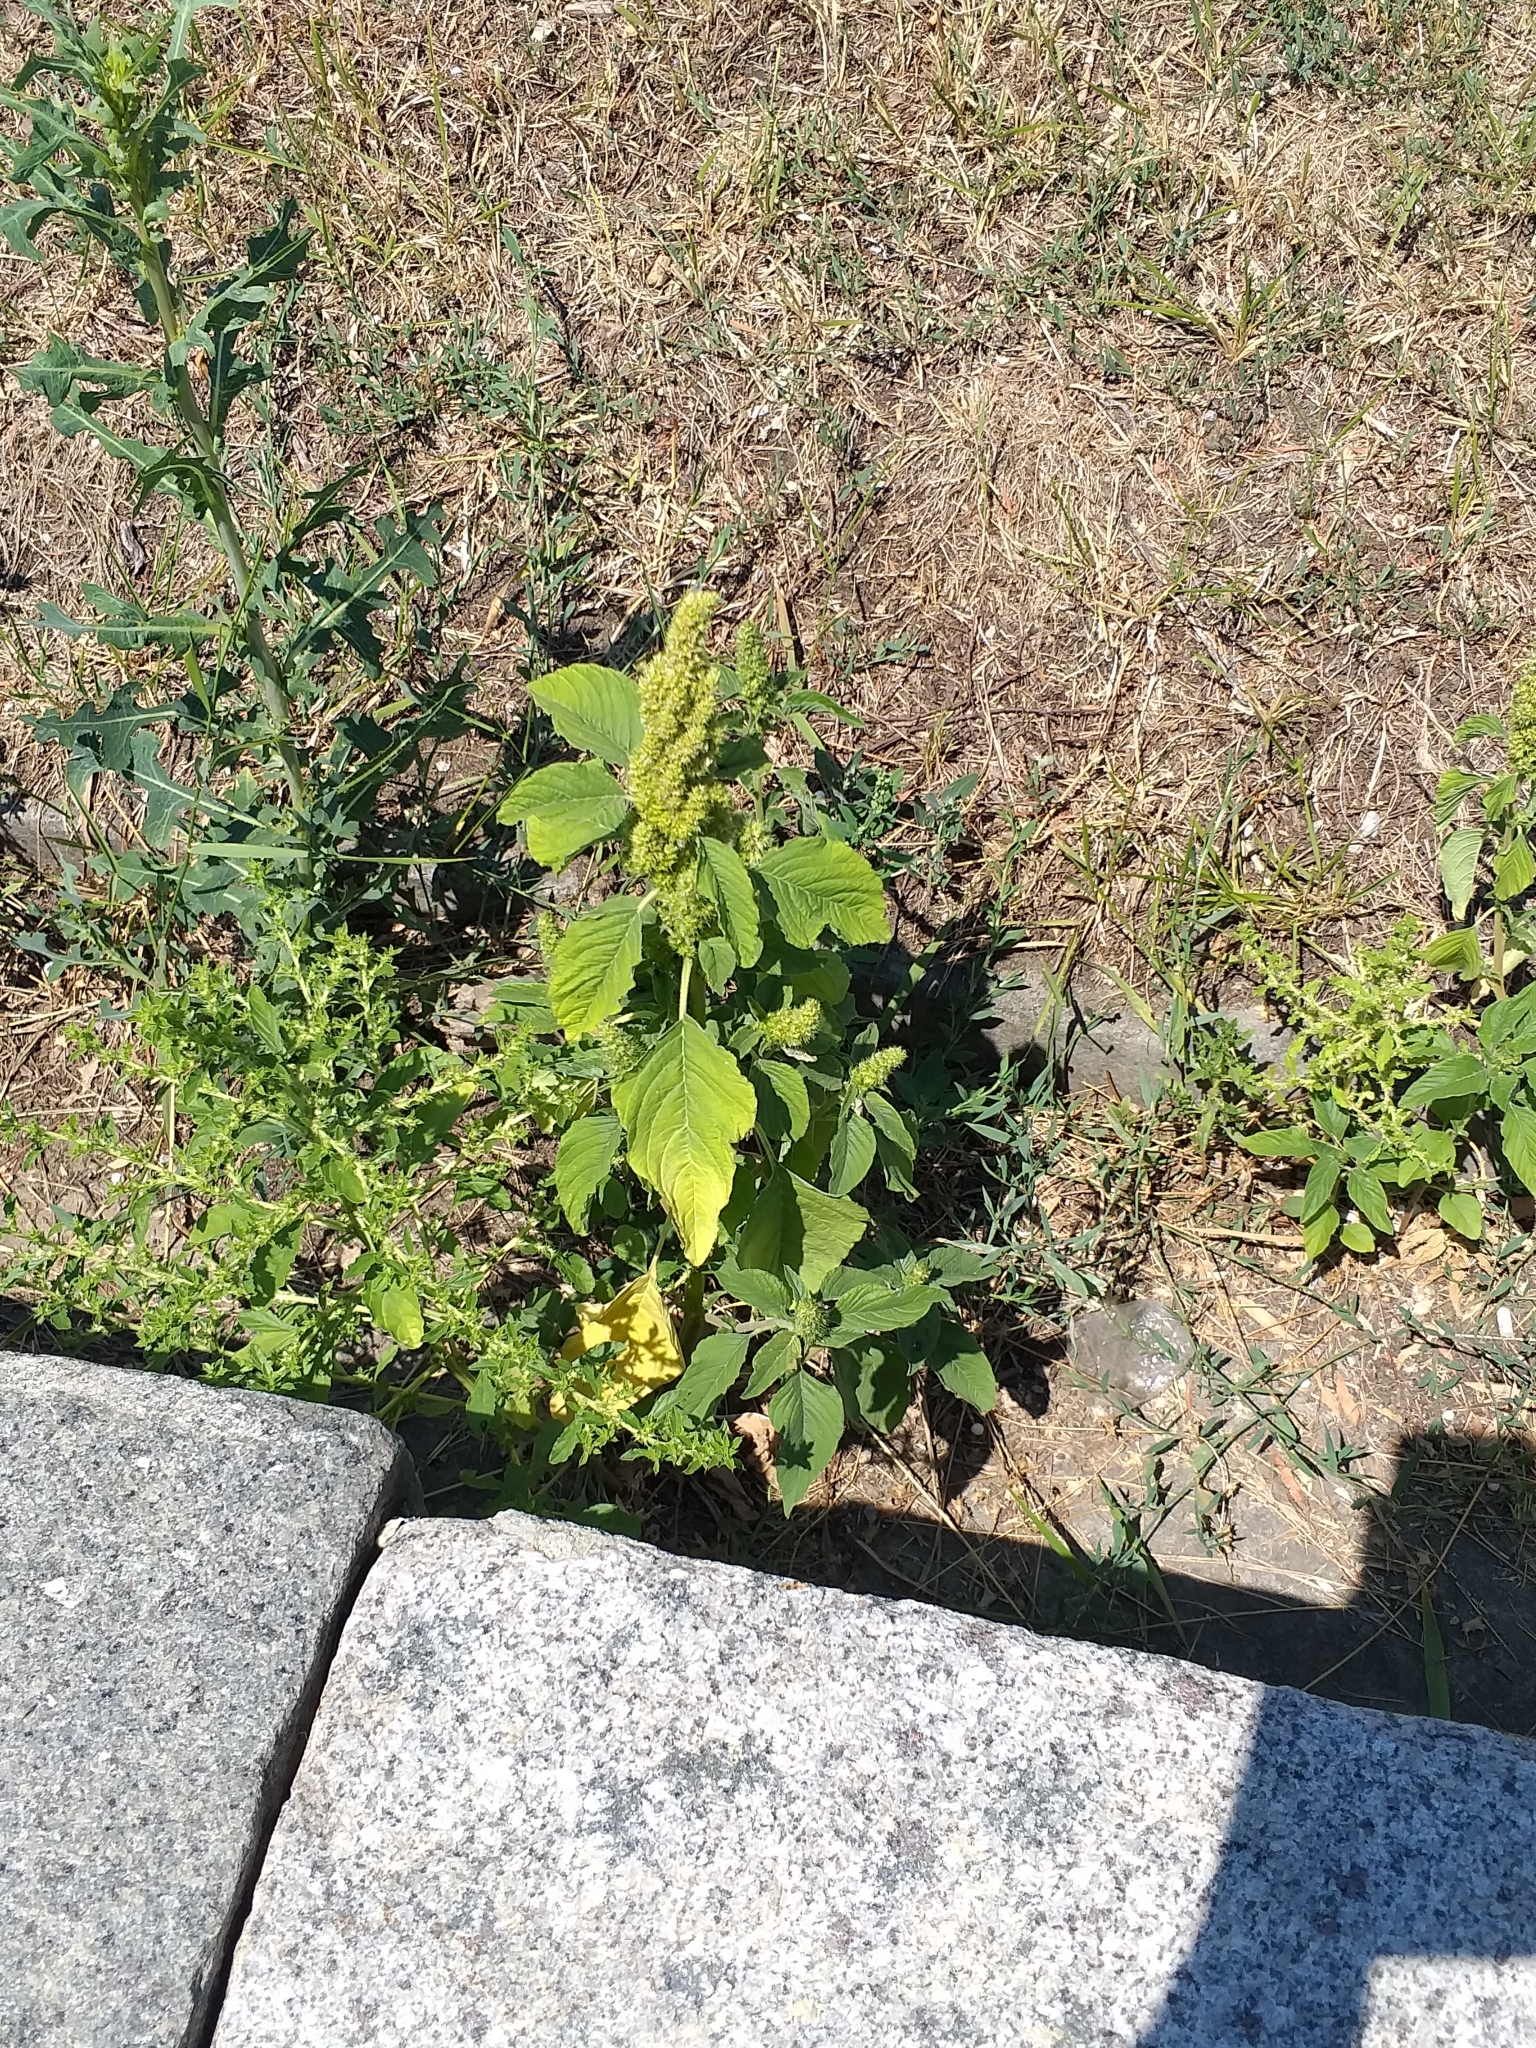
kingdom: Plantae
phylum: Tracheophyta
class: Magnoliopsida
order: Caryophyllales
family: Amaranthaceae
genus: Amaranthus
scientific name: Amaranthus retroflexus
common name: Redroot amaranth
